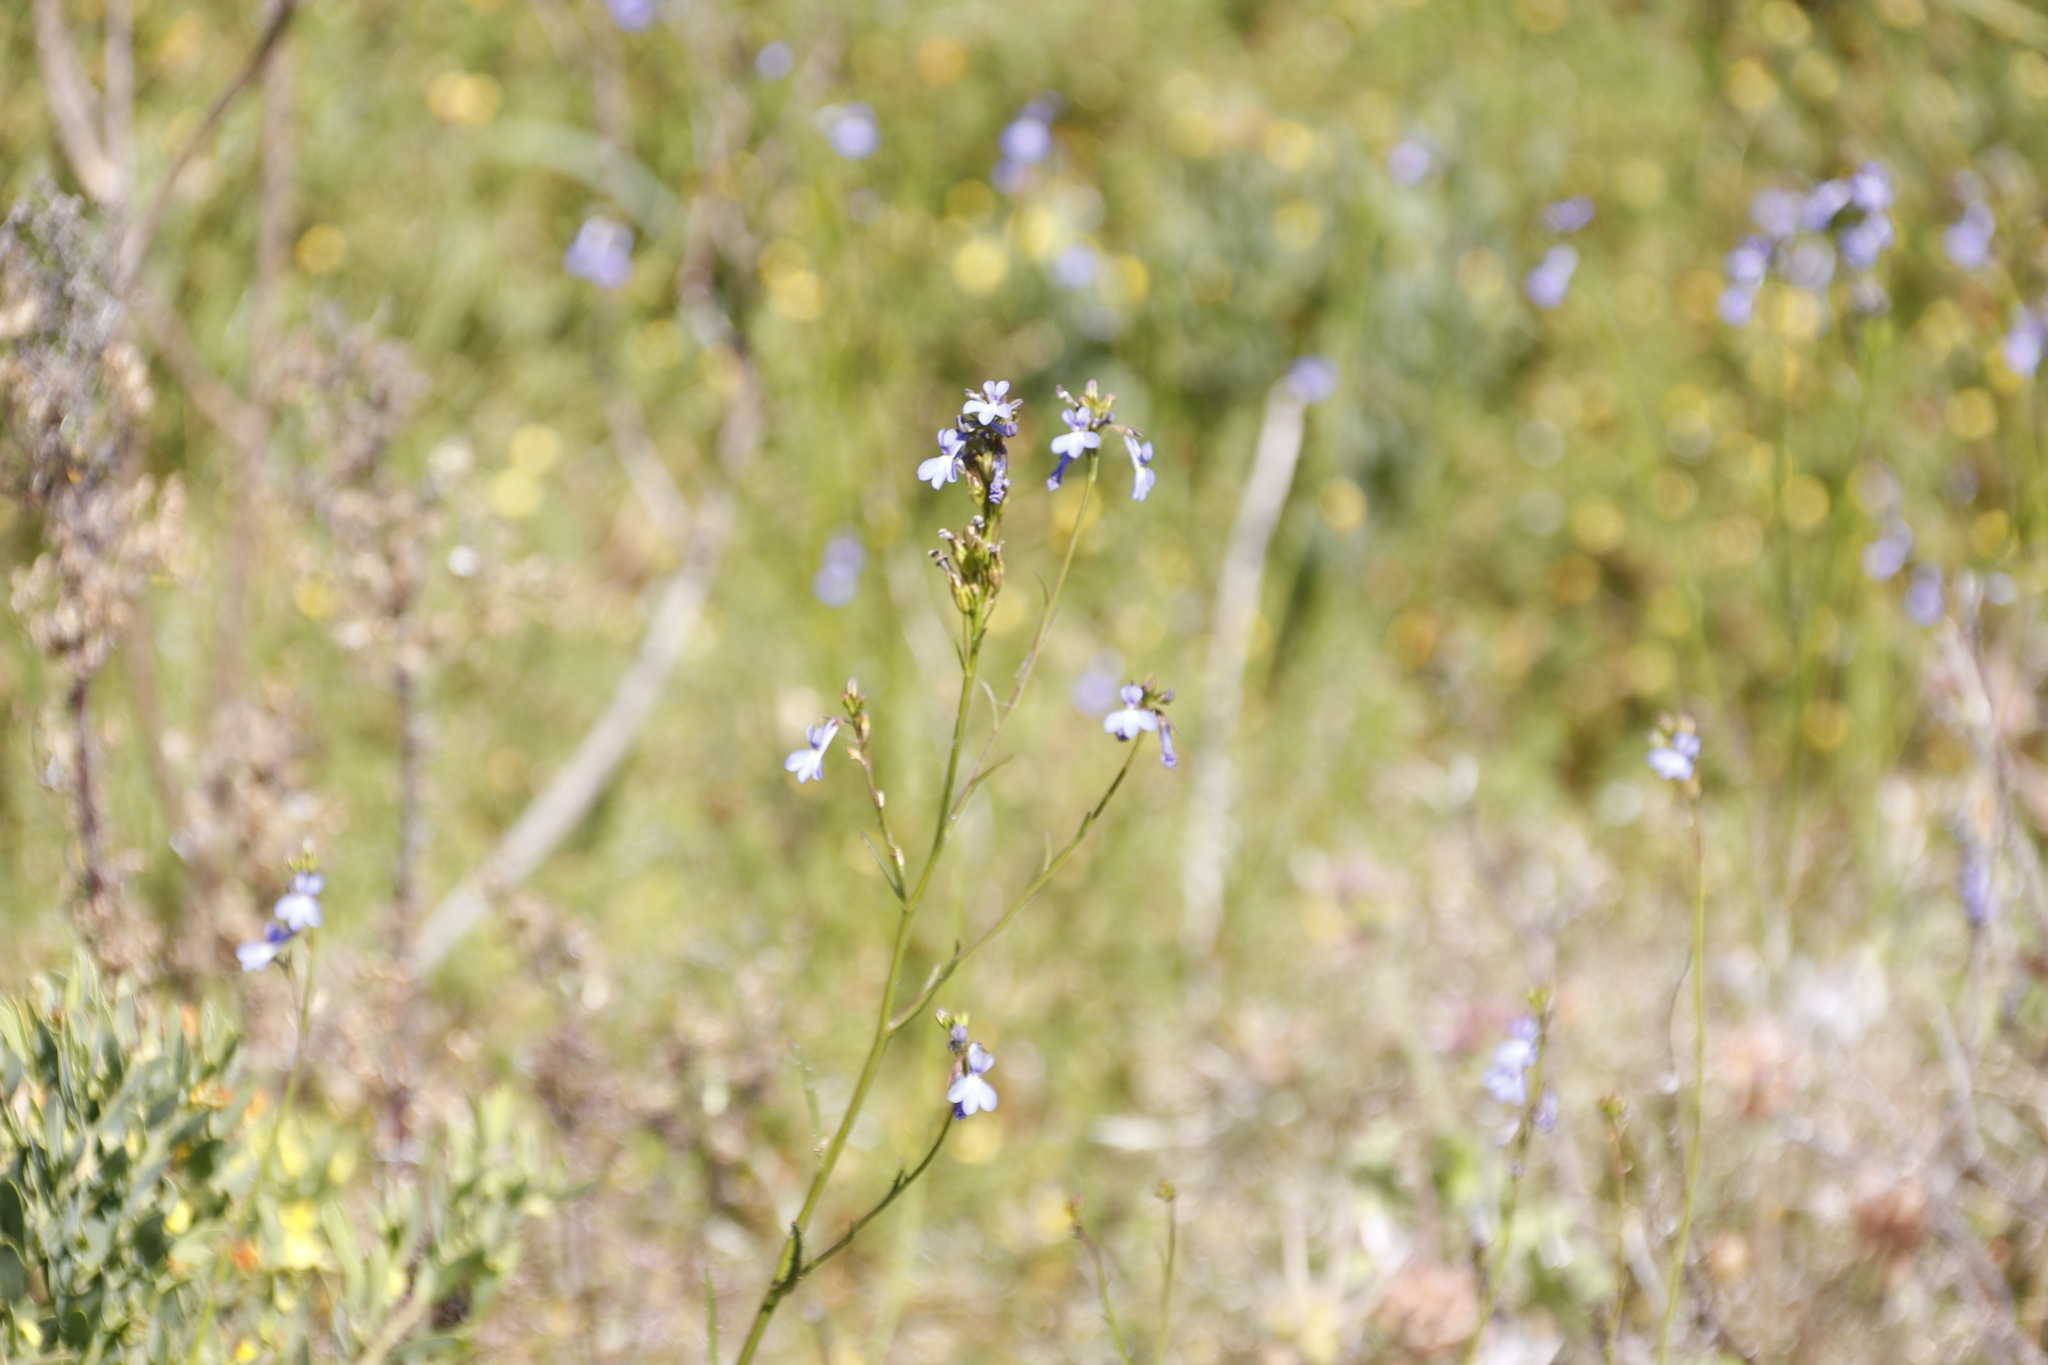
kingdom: Plantae
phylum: Tracheophyta
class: Magnoliopsida
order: Asterales
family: Campanulaceae
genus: Lobelia
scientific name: Lobelia comosa
